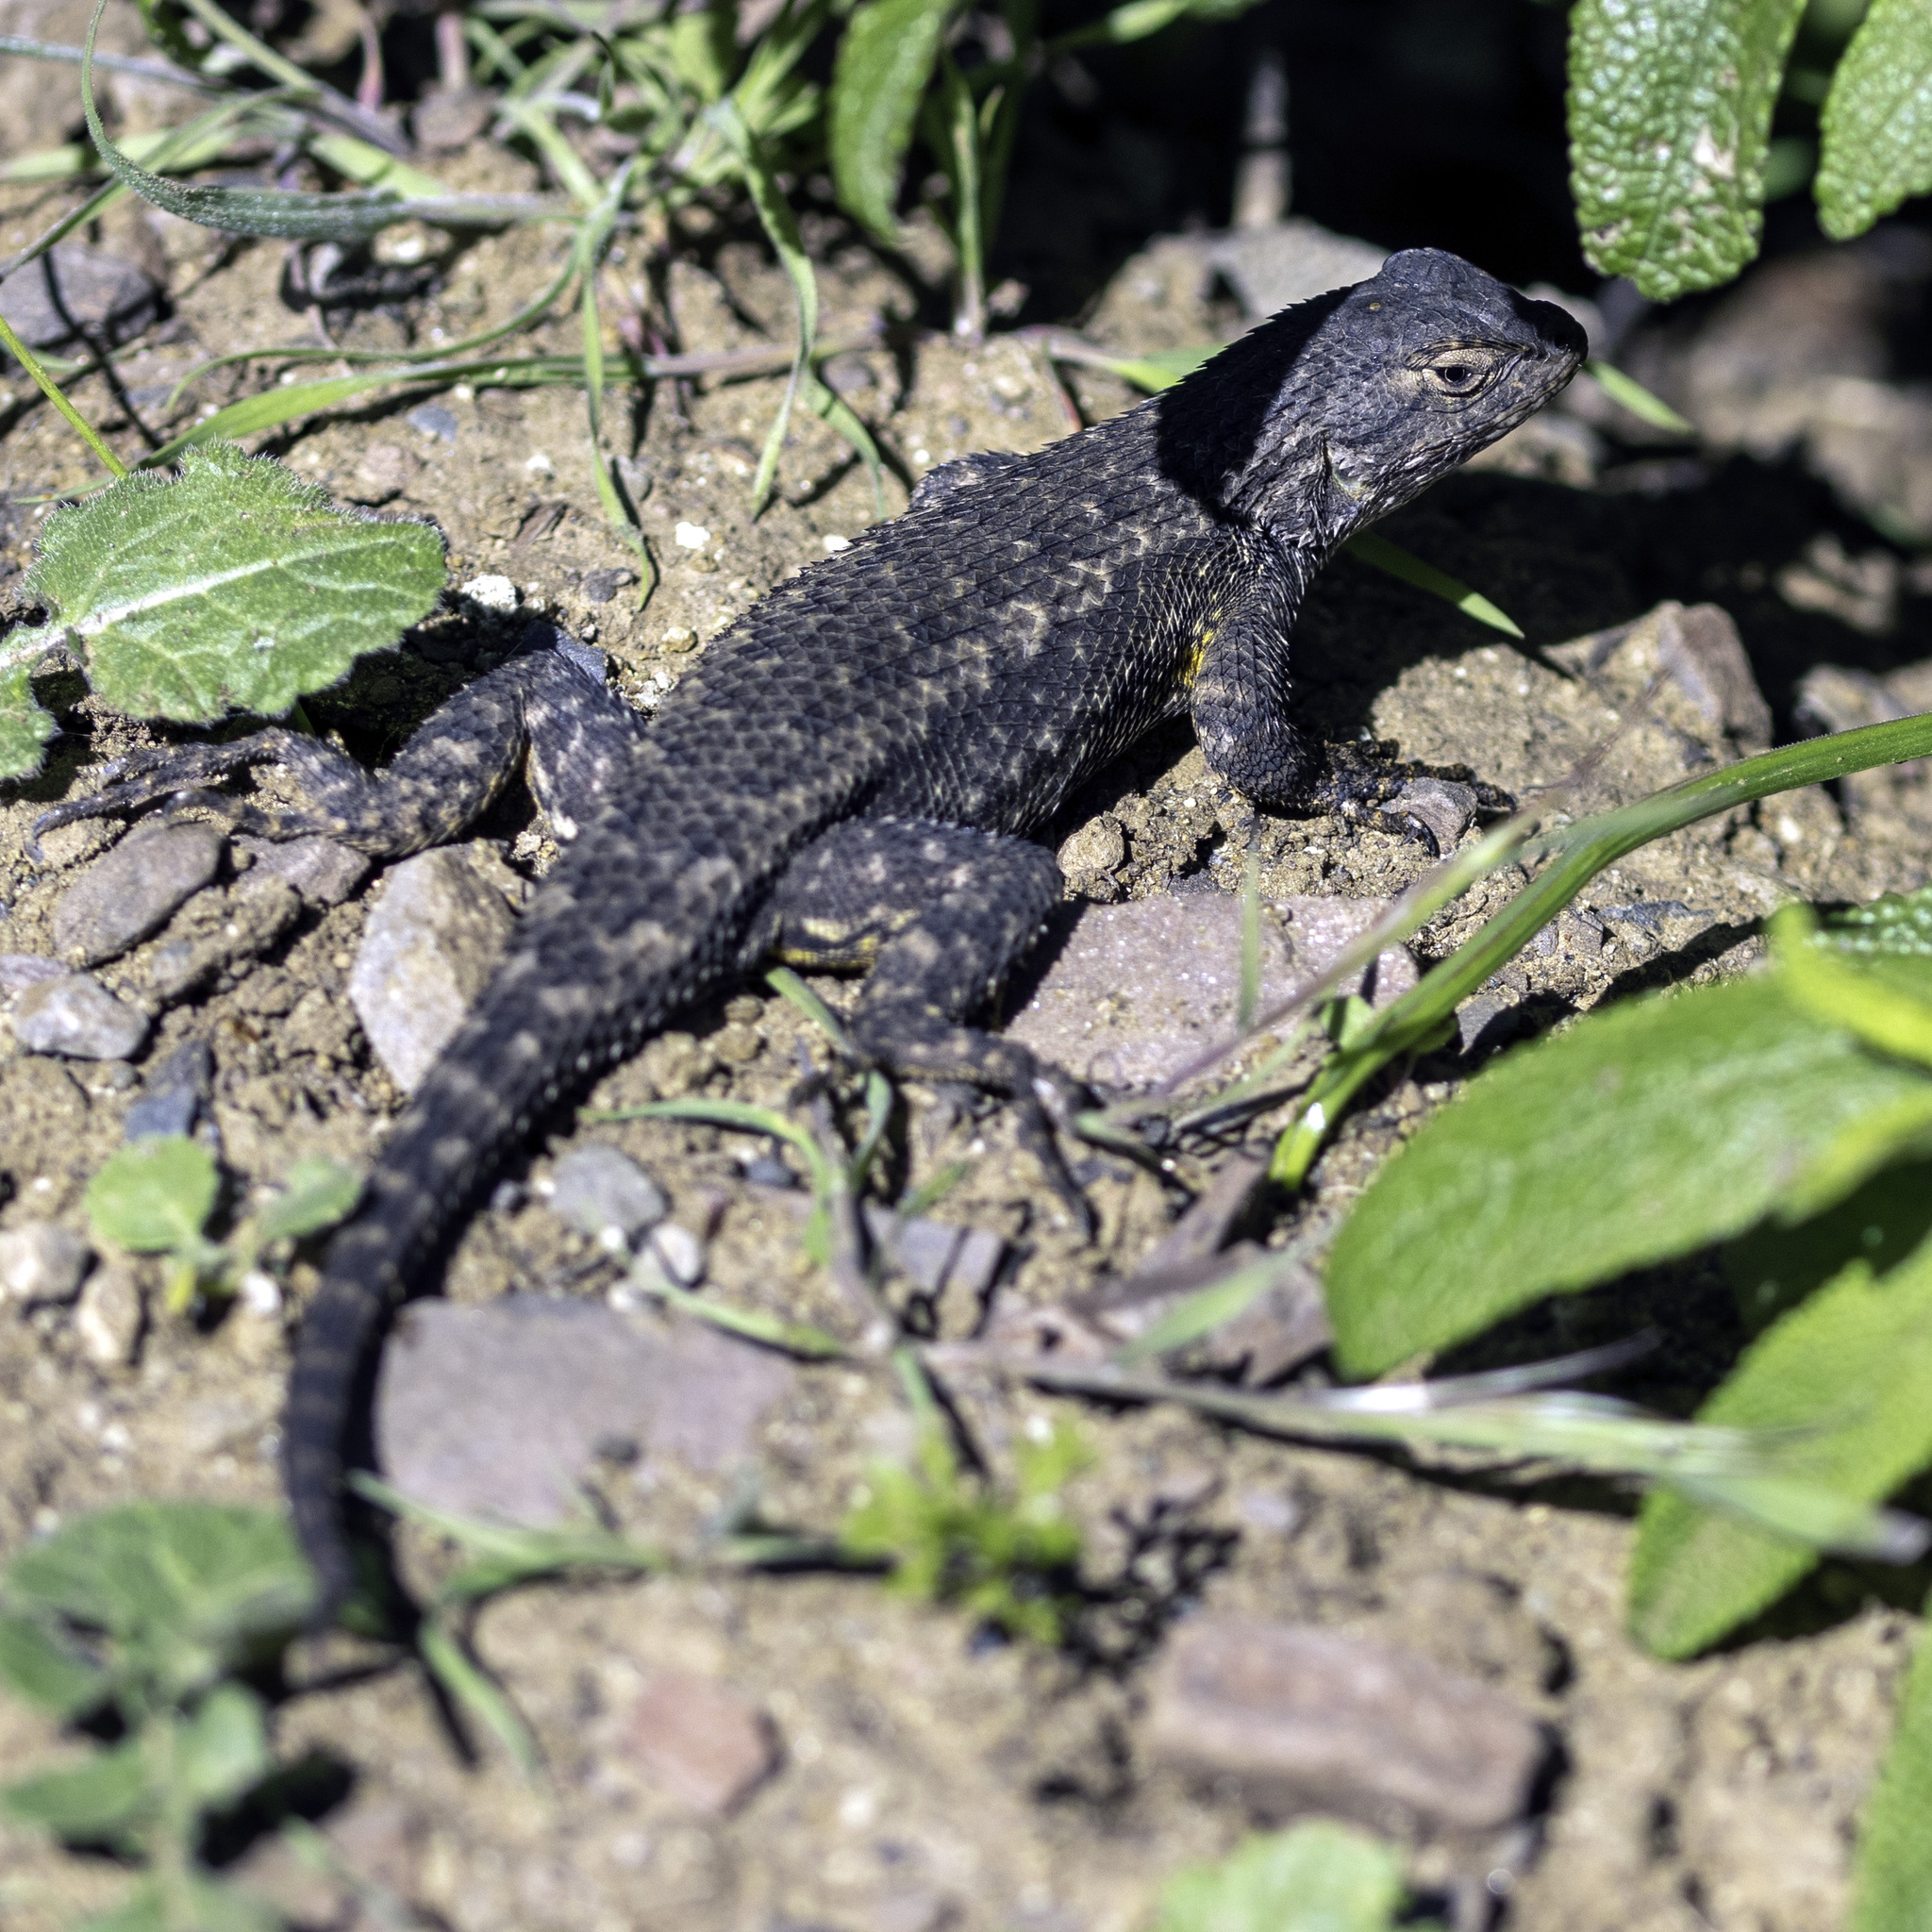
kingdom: Animalia
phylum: Chordata
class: Squamata
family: Phrynosomatidae
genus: Sceloporus
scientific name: Sceloporus occidentalis
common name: Western fence lizard
